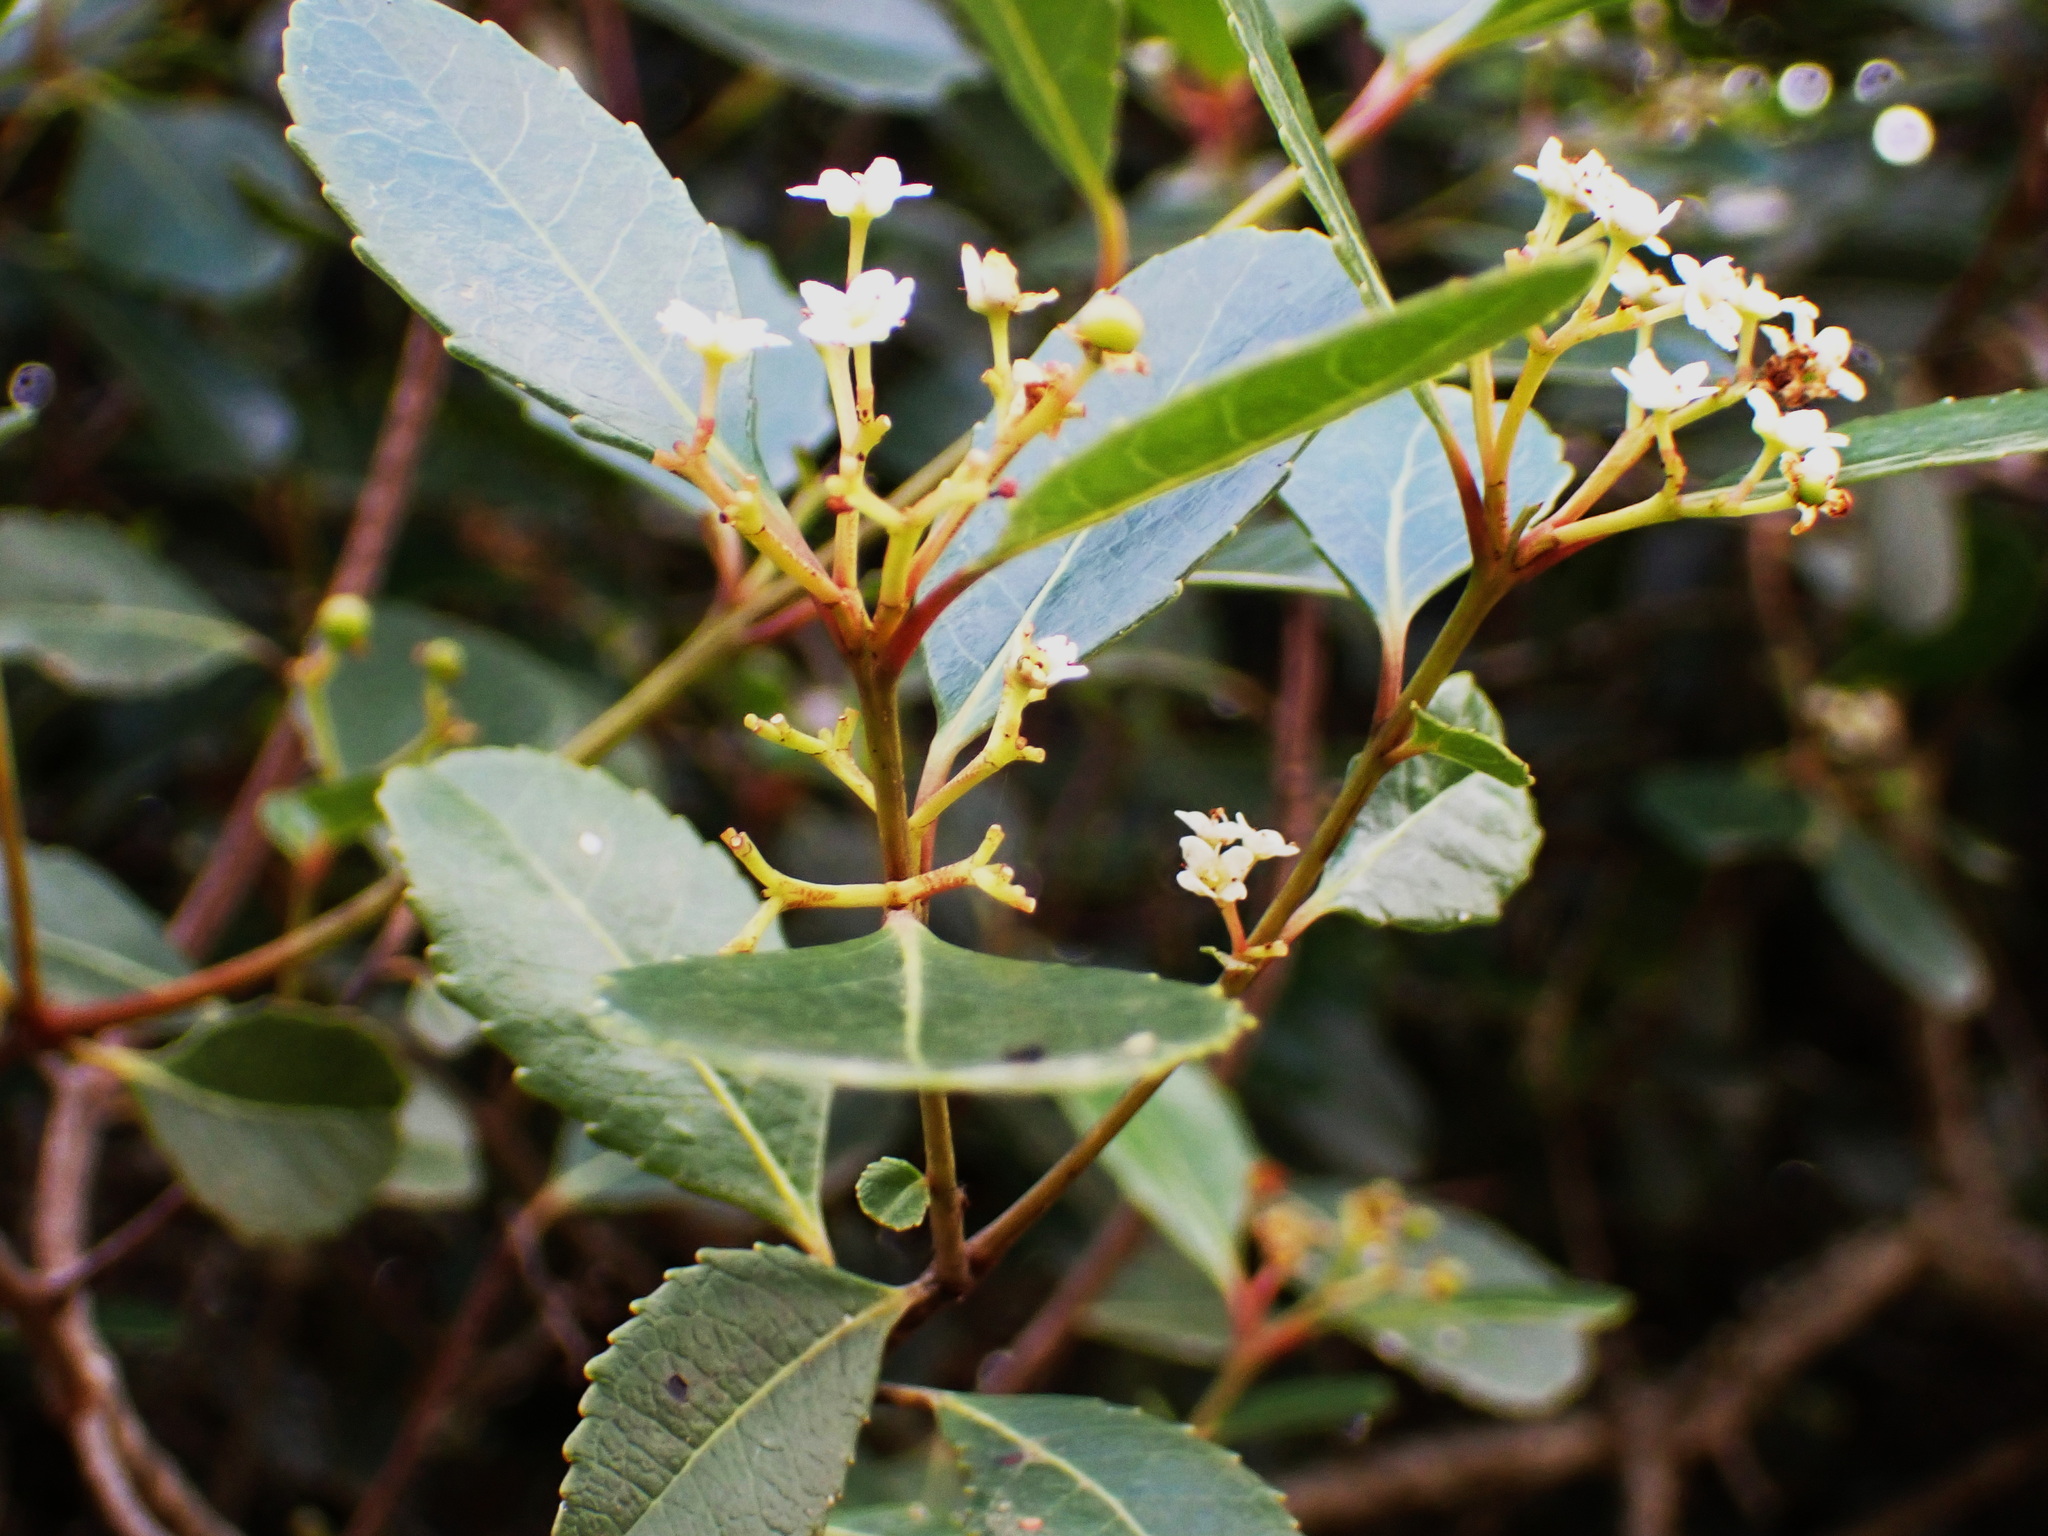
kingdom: Plantae
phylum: Tracheophyta
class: Magnoliopsida
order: Celastrales
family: Celastraceae
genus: Cassine
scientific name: Cassine peragua
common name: Cape saffron
